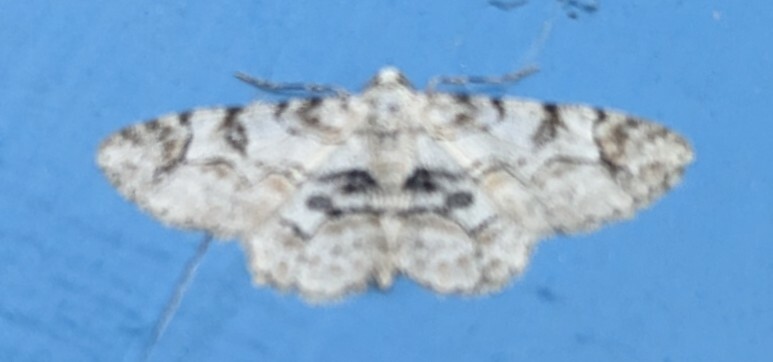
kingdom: Animalia
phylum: Arthropoda
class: Insecta
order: Lepidoptera
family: Geometridae
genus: Iridopsis
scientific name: Iridopsis larvaria
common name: Bent-line gray
